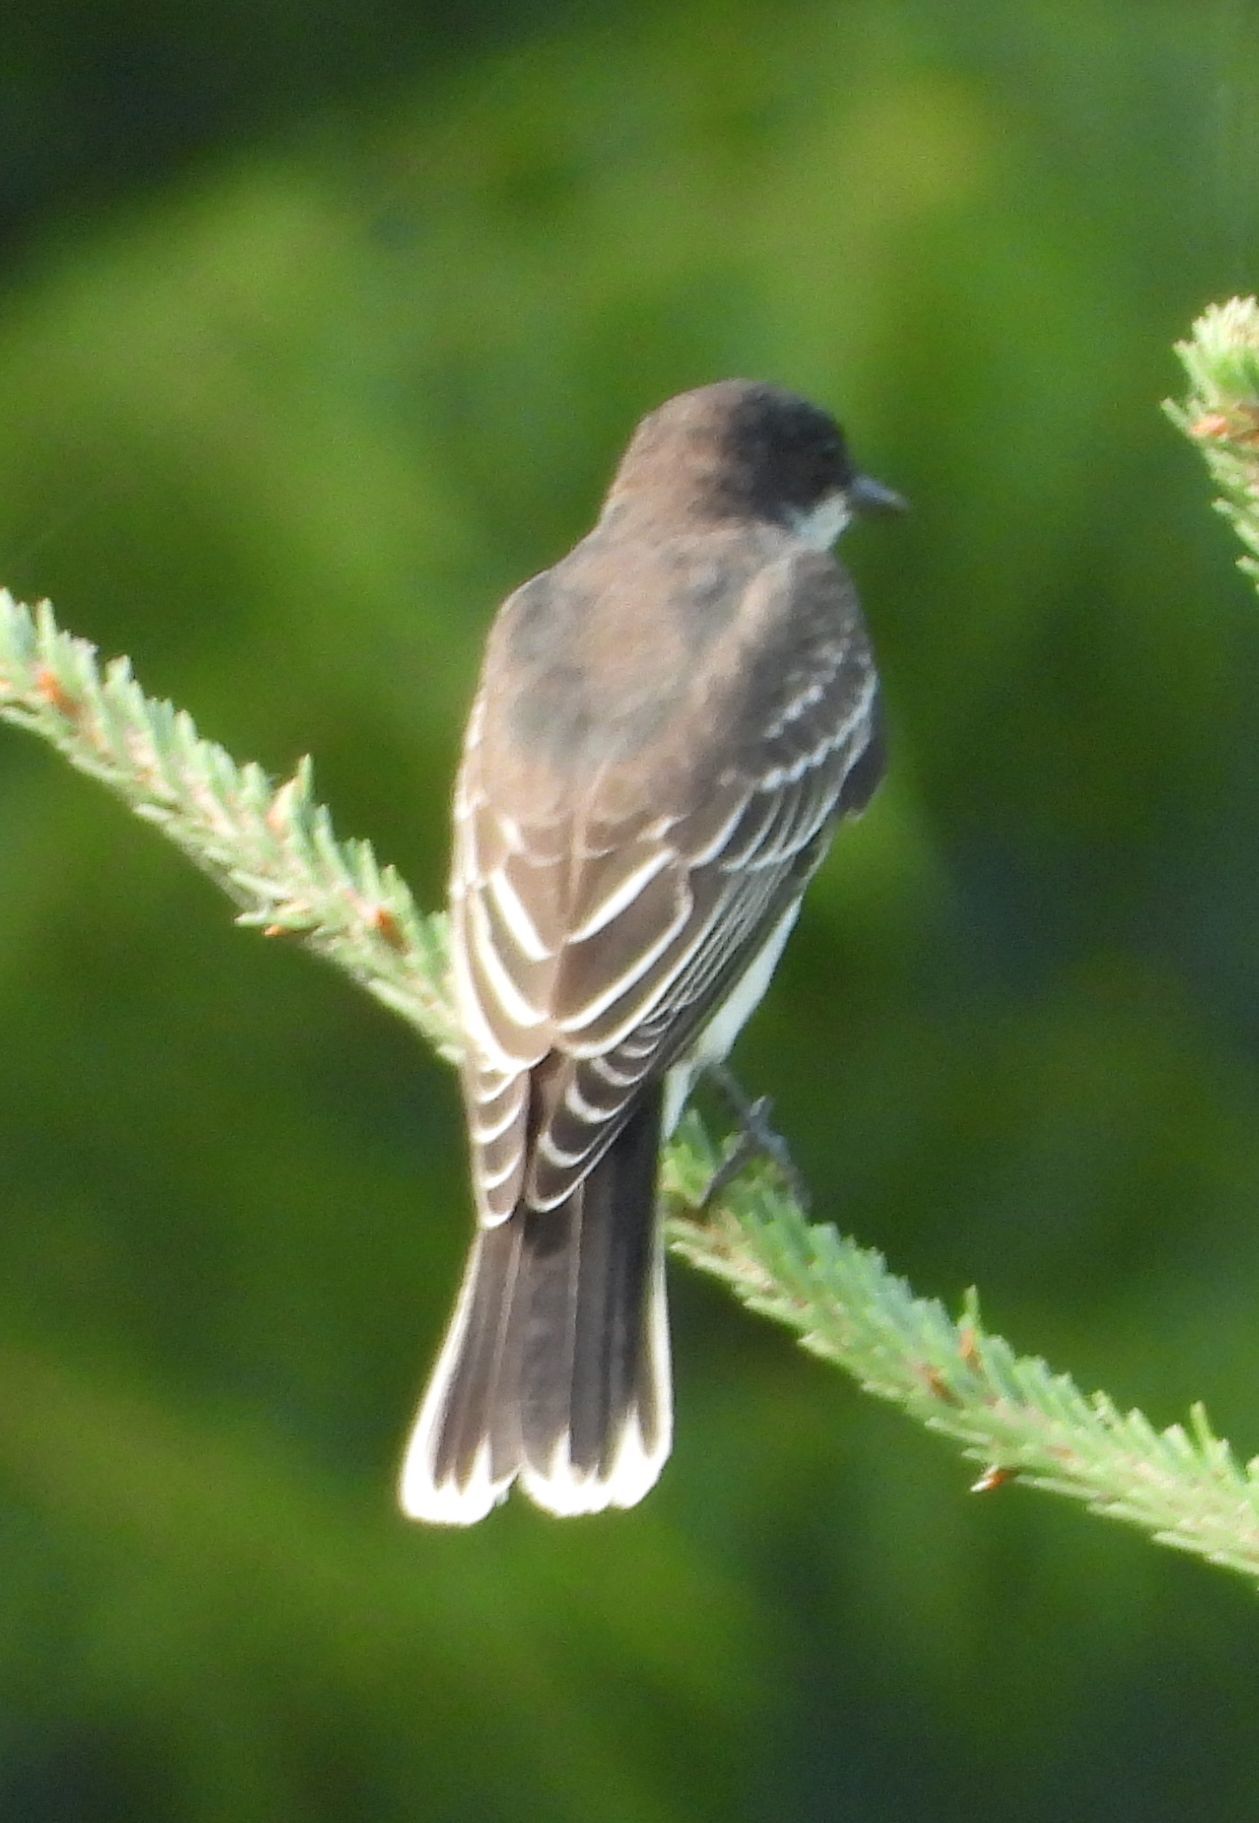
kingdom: Animalia
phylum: Chordata
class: Aves
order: Passeriformes
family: Tyrannidae
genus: Tyrannus
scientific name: Tyrannus tyrannus
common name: Eastern kingbird
